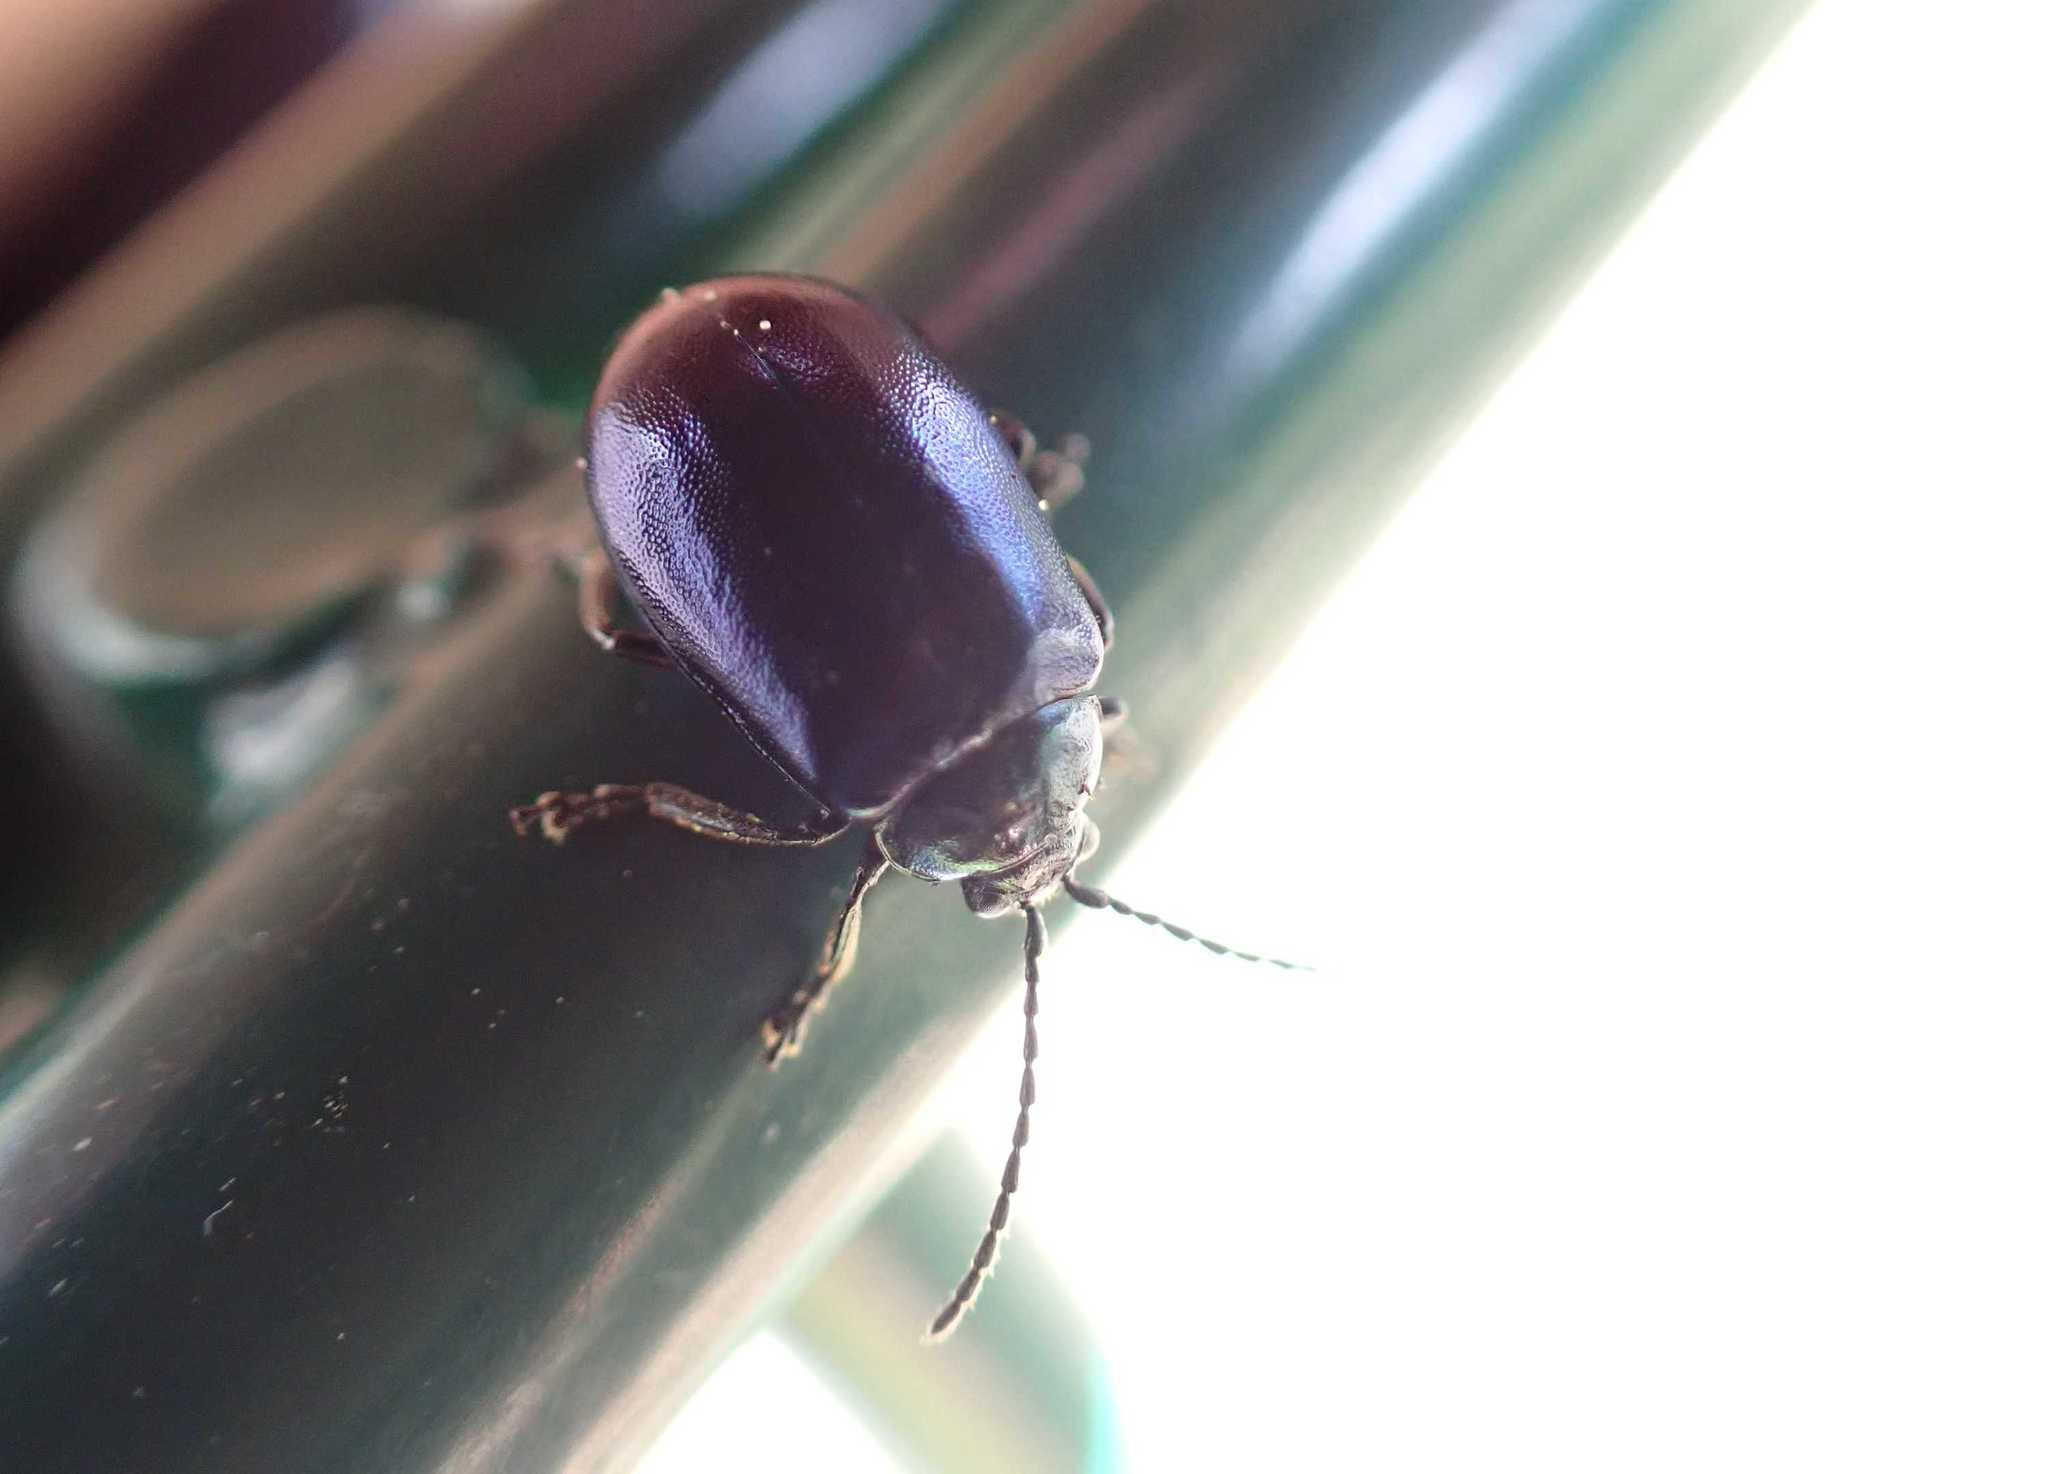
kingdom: Animalia
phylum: Arthropoda
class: Insecta
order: Coleoptera
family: Chrysomelidae
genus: Agelastica
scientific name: Agelastica alni
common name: Alder leaf beetle
